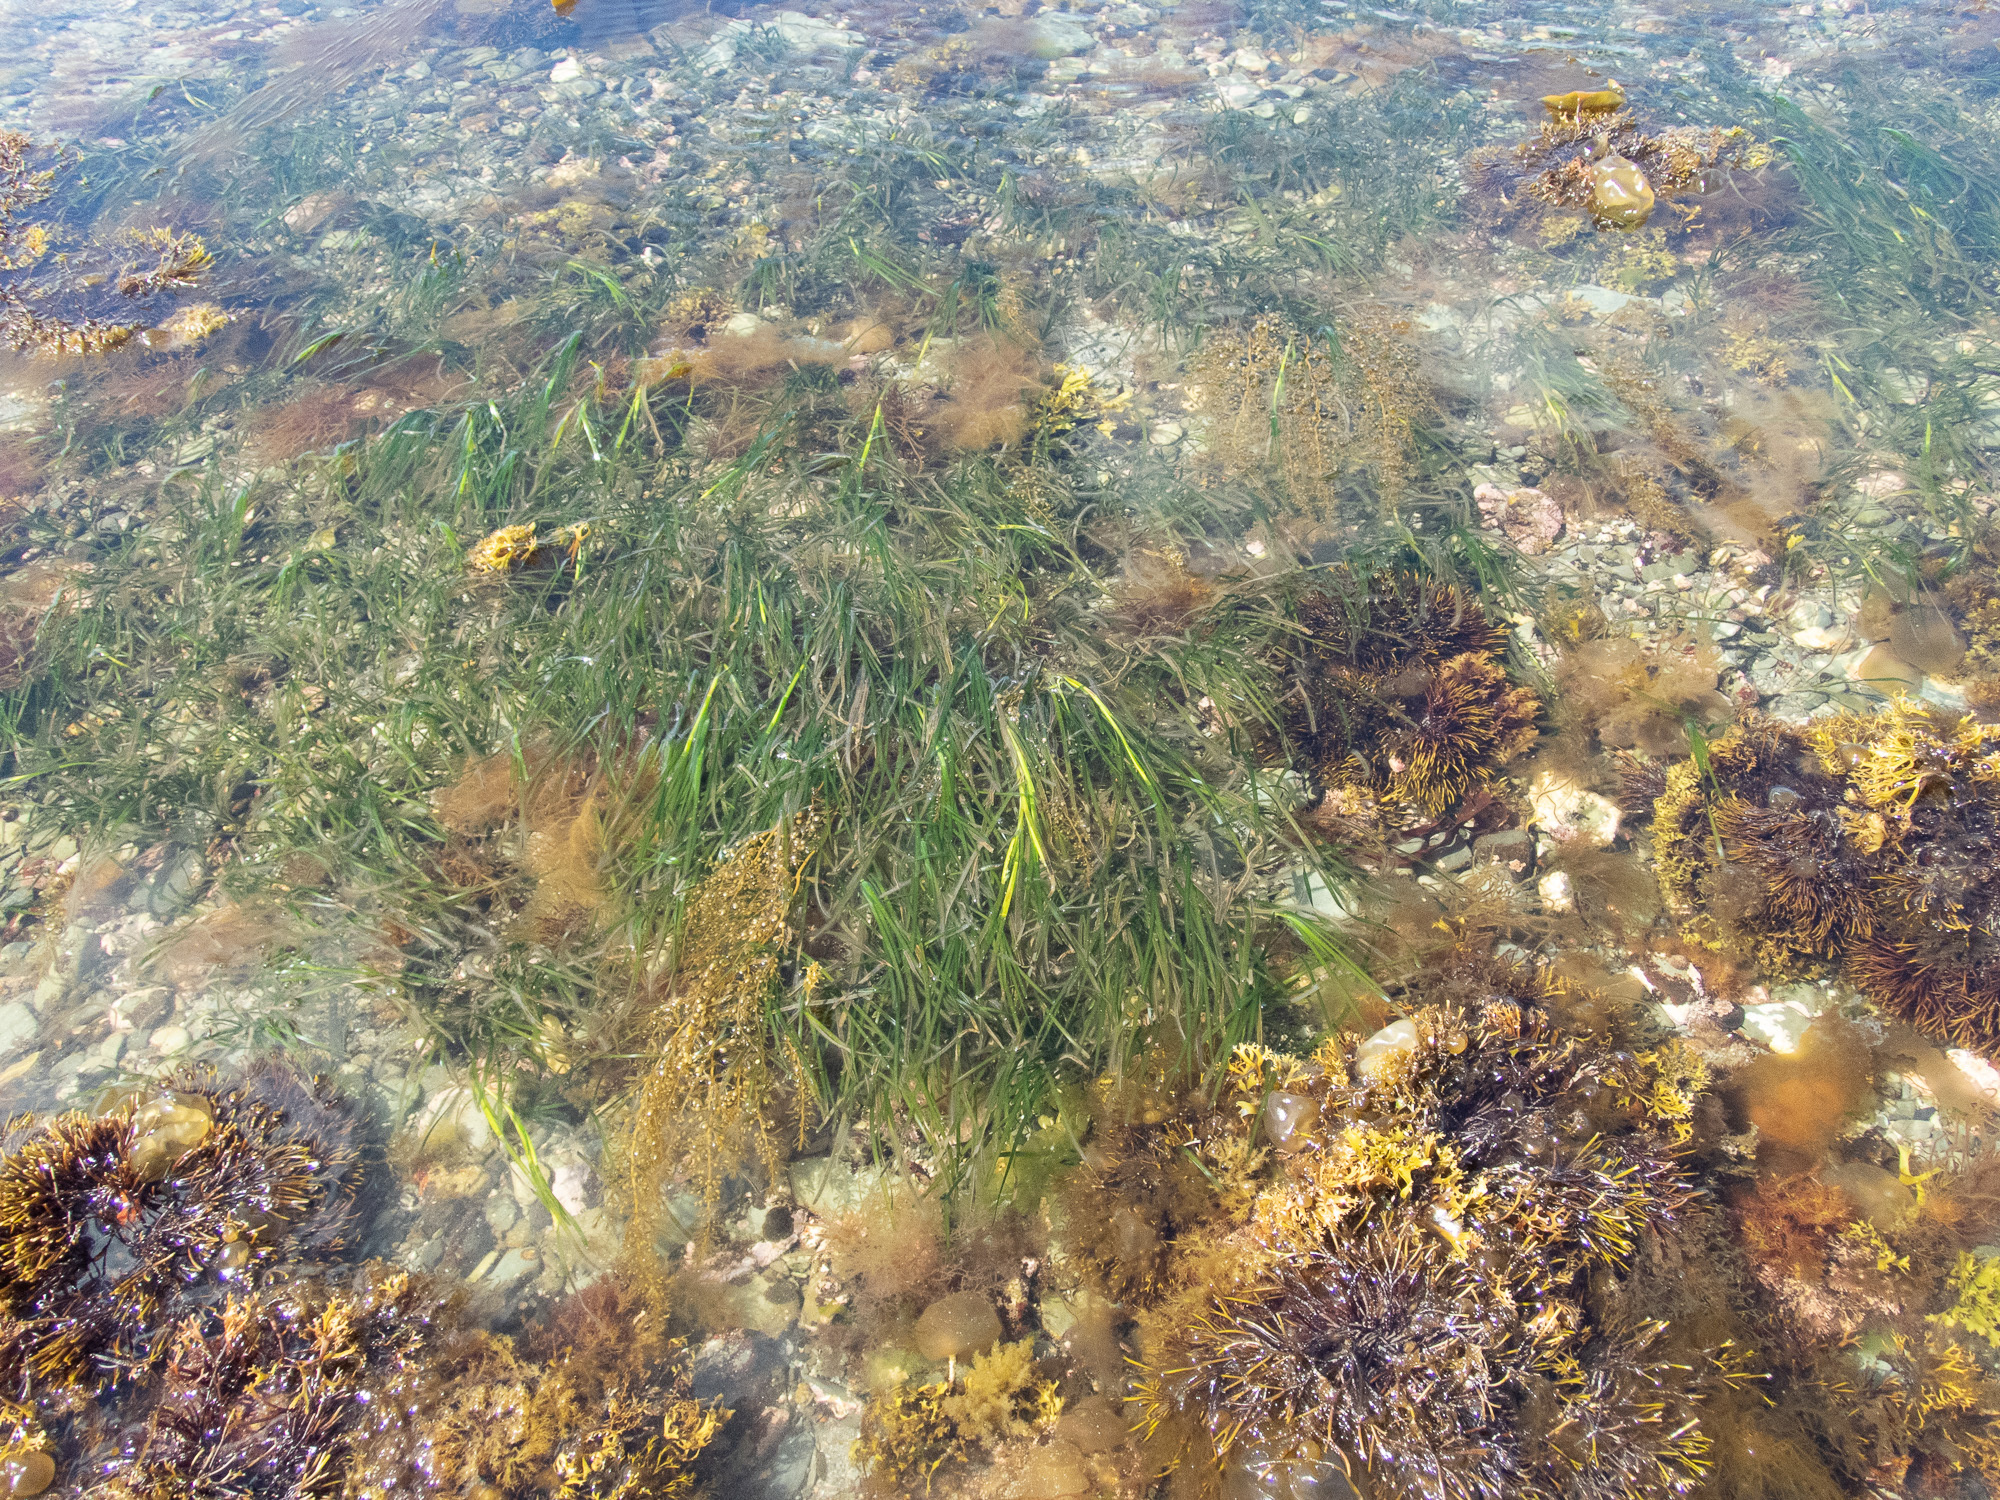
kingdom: Plantae
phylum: Tracheophyta
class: Liliopsida
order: Alismatales
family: Zosteraceae
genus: Zostera
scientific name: Zostera marina
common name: Eelgrass
